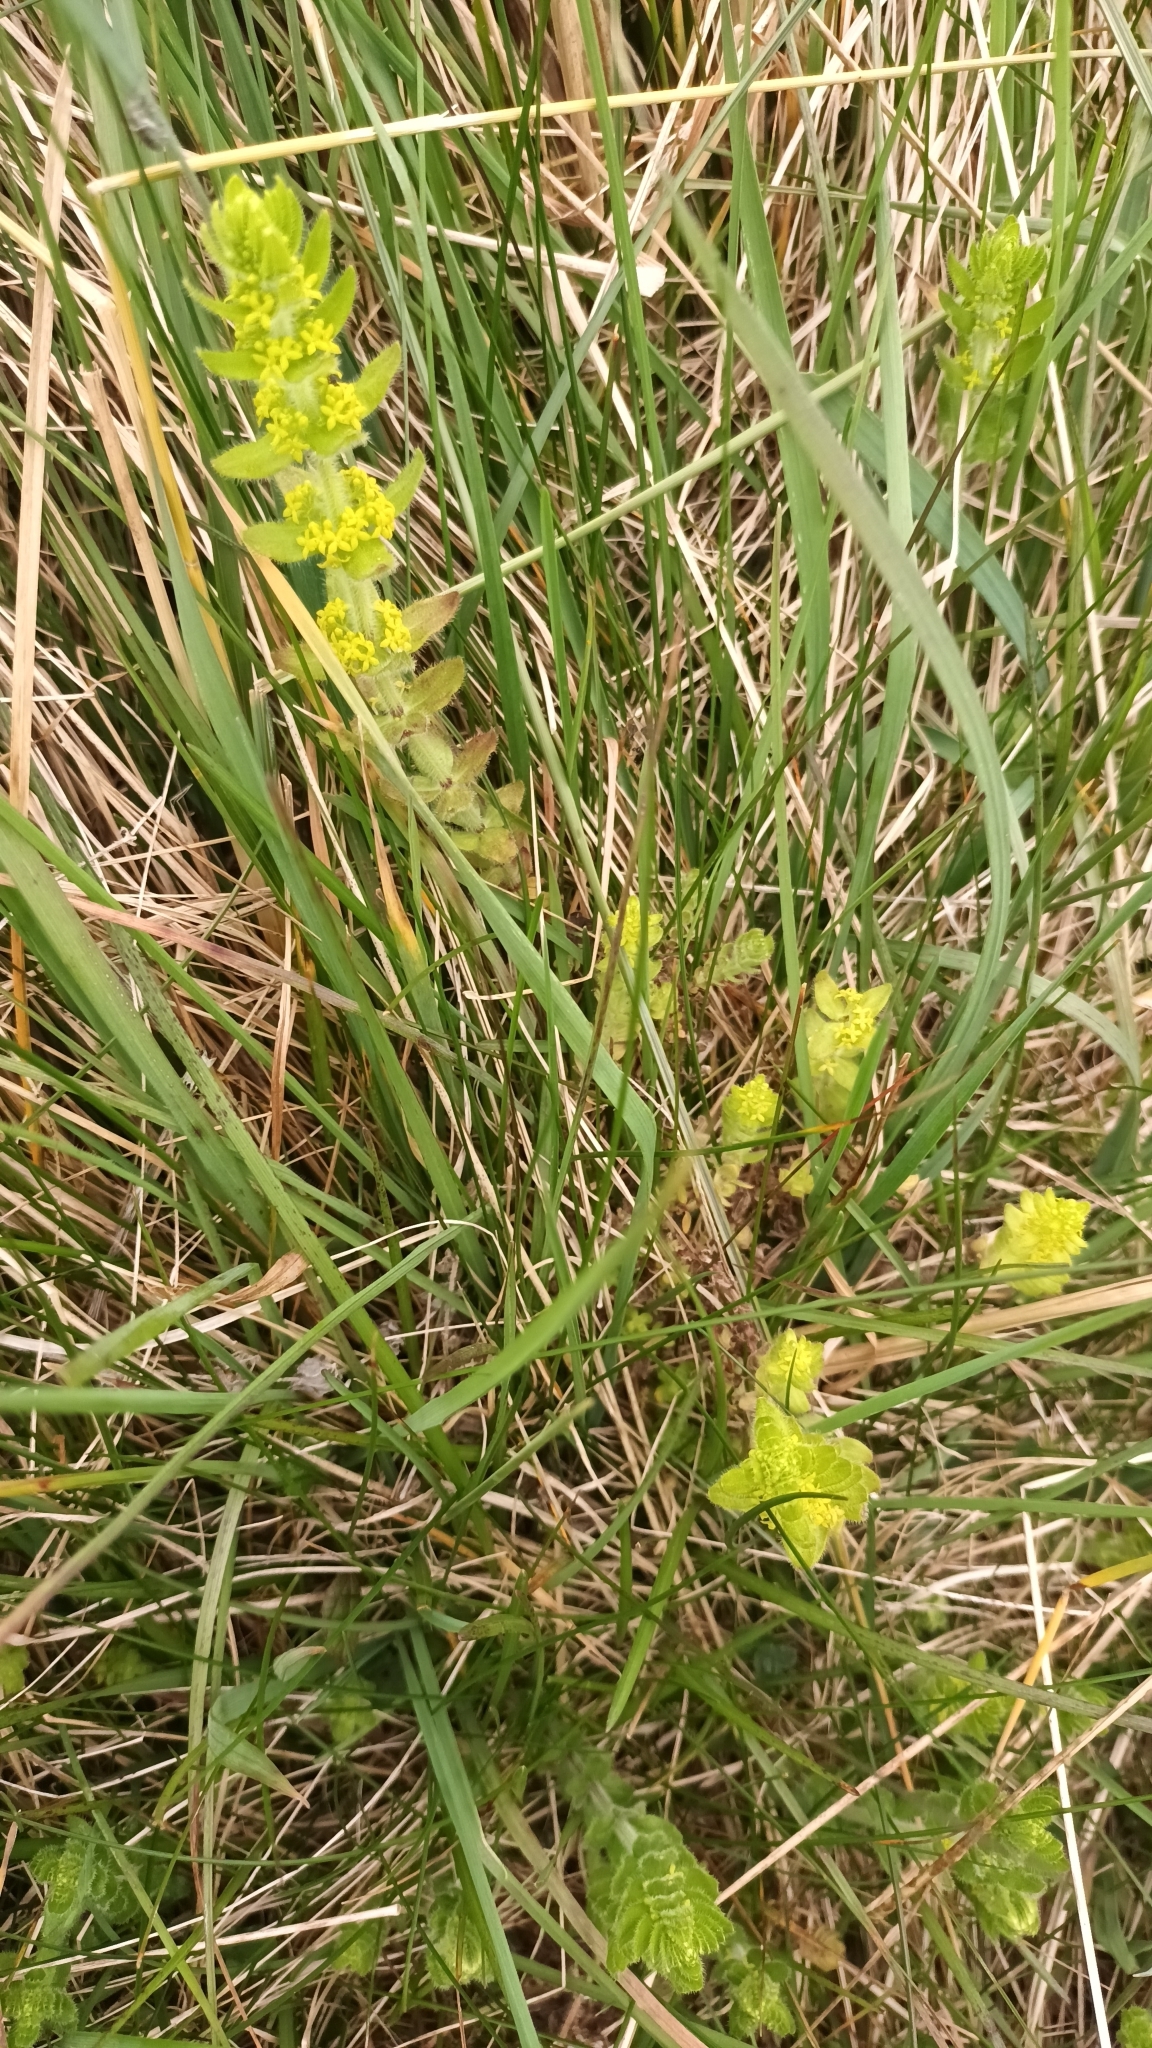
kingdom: Plantae
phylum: Tracheophyta
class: Magnoliopsida
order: Gentianales
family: Rubiaceae
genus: Cruciata
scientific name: Cruciata laevipes
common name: Crosswort
